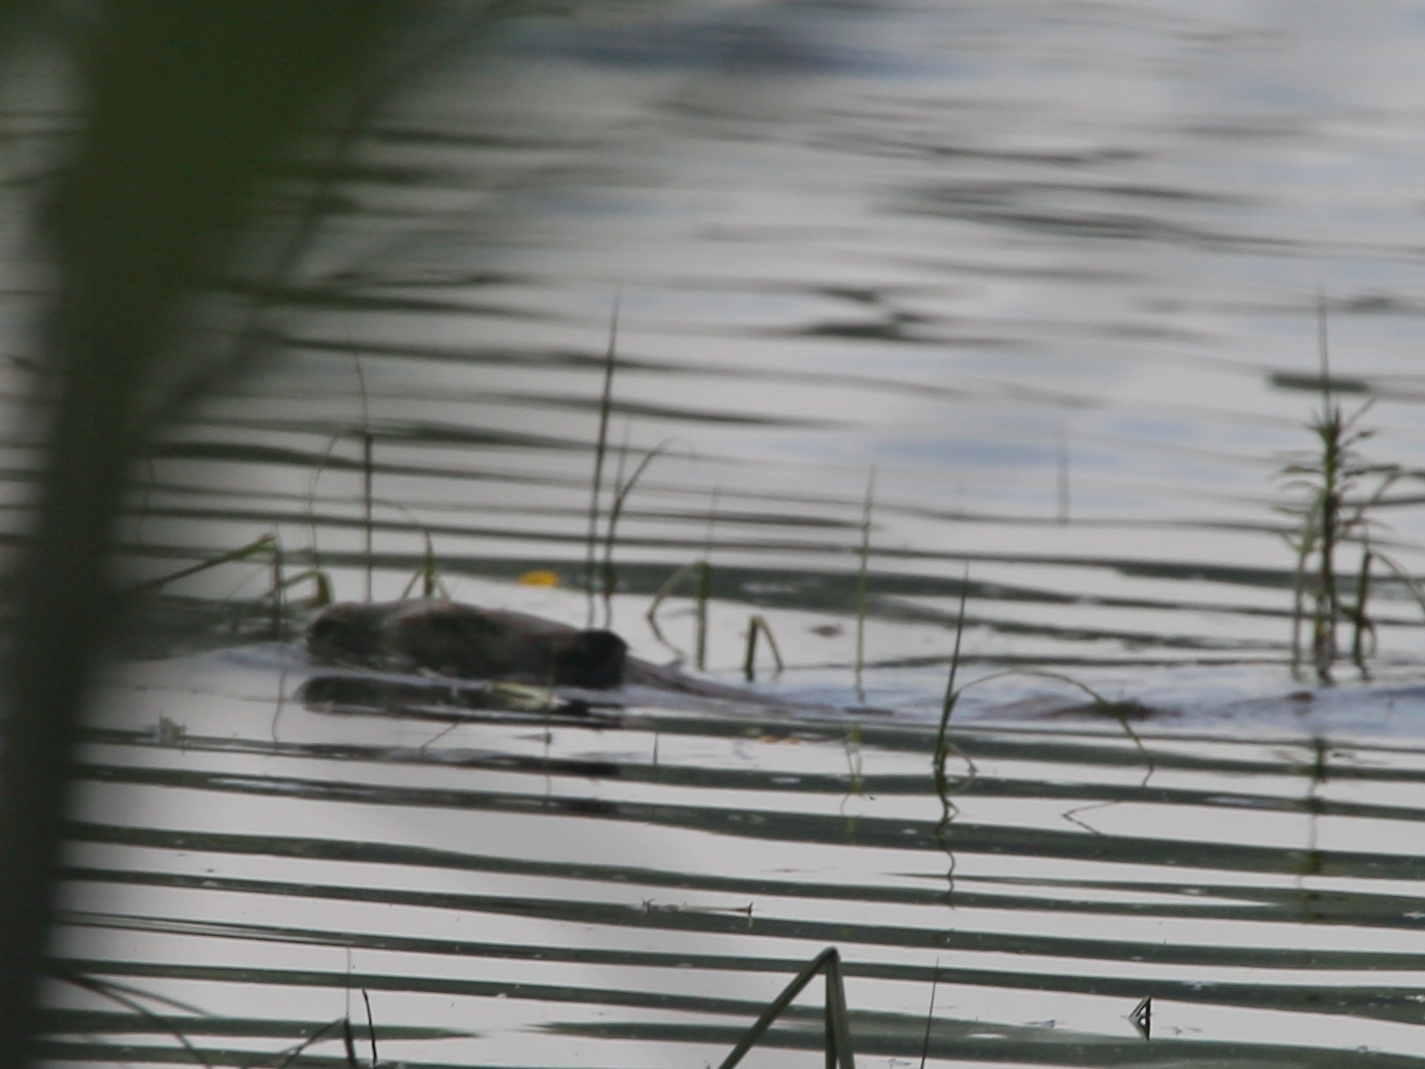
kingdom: Animalia
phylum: Chordata
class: Mammalia
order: Rodentia
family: Castoridae
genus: Castor
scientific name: Castor fiber
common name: Eurasian beaver
